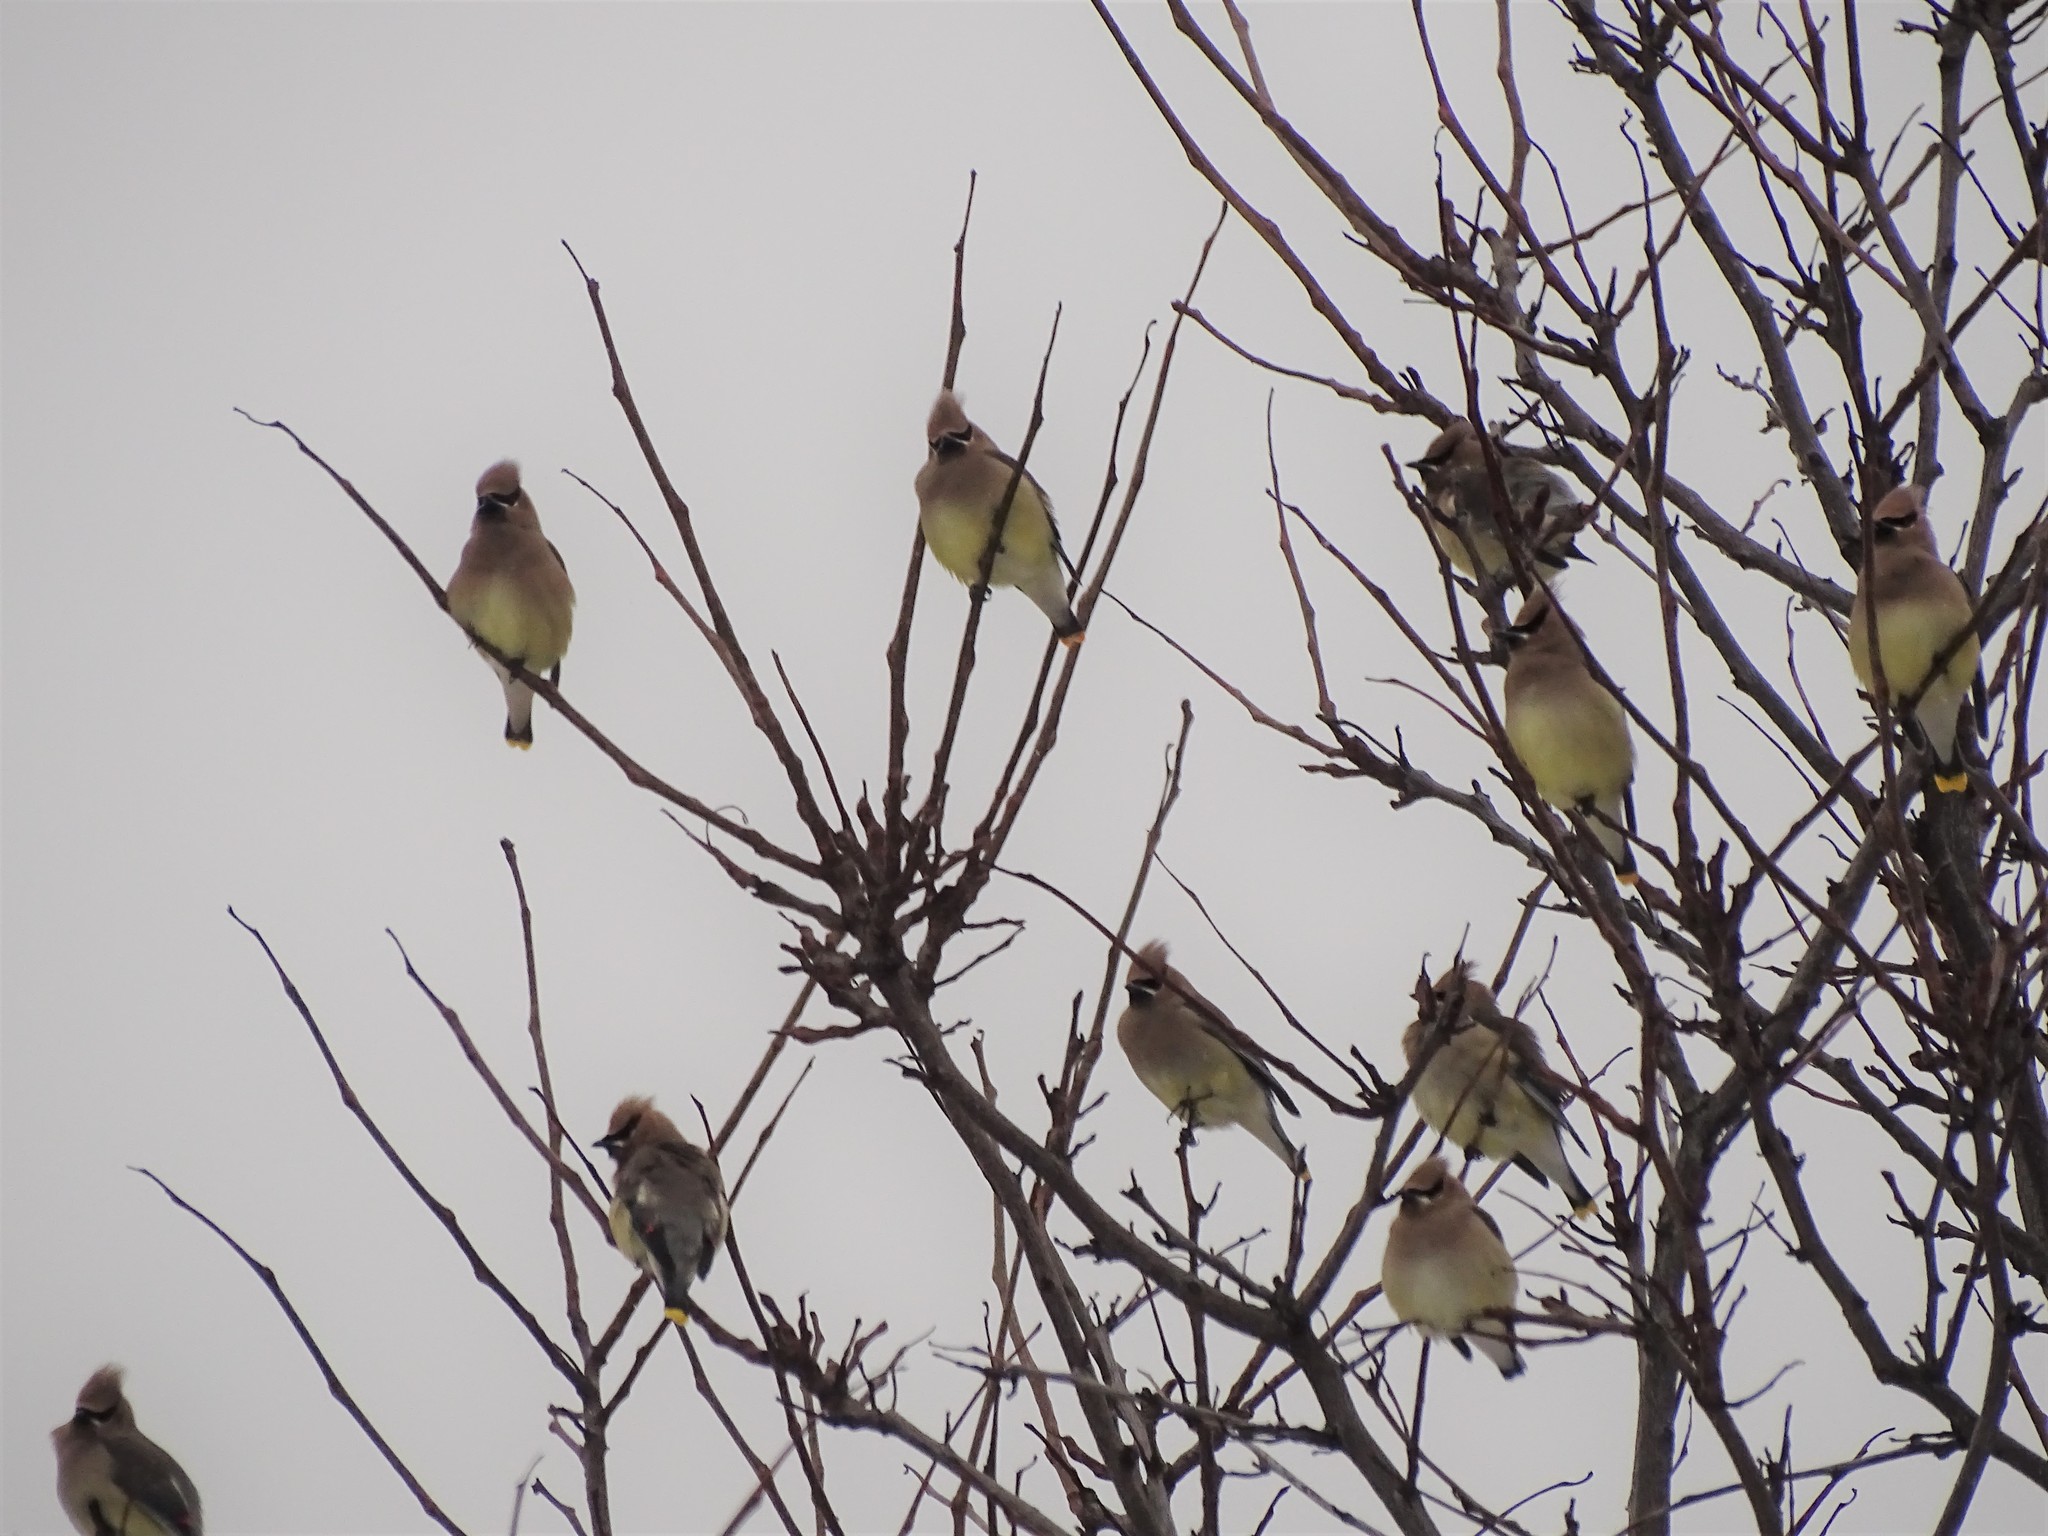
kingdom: Animalia
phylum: Chordata
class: Aves
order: Passeriformes
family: Bombycillidae
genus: Bombycilla
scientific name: Bombycilla cedrorum
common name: Cedar waxwing
